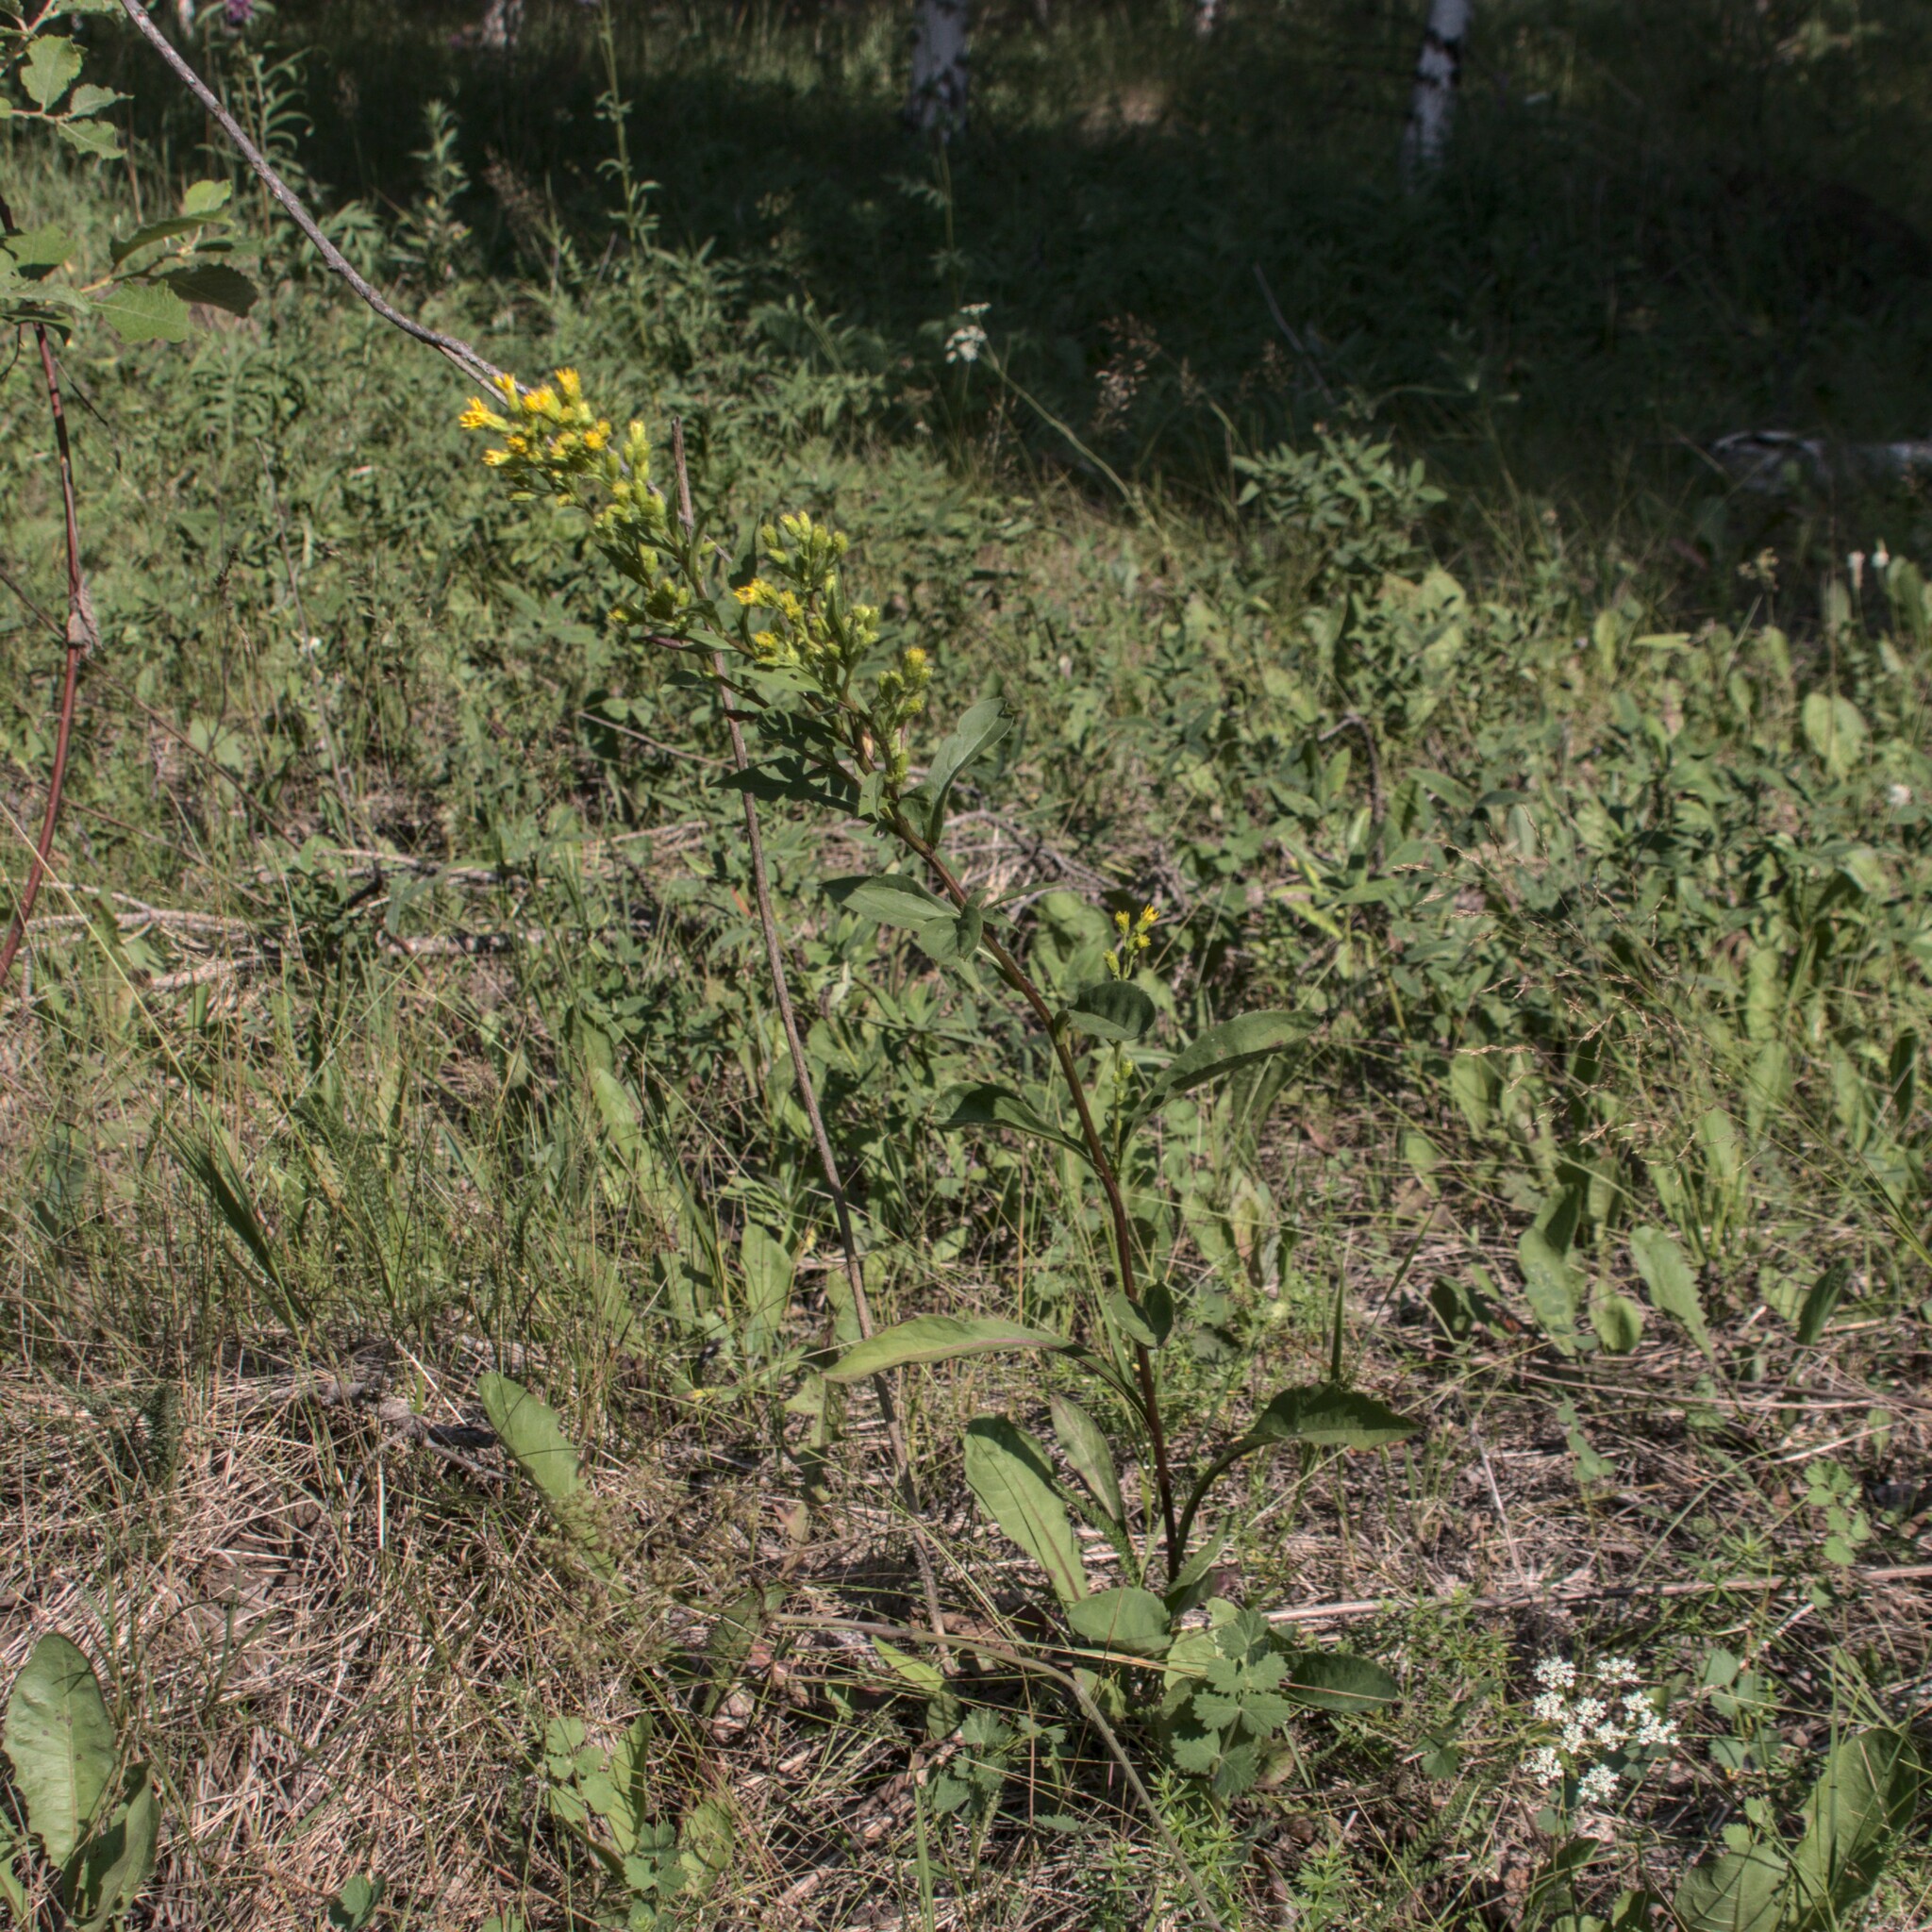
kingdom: Plantae
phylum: Tracheophyta
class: Magnoliopsida
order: Asterales
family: Asteraceae
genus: Solidago
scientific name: Solidago virgaurea
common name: Goldenrod
